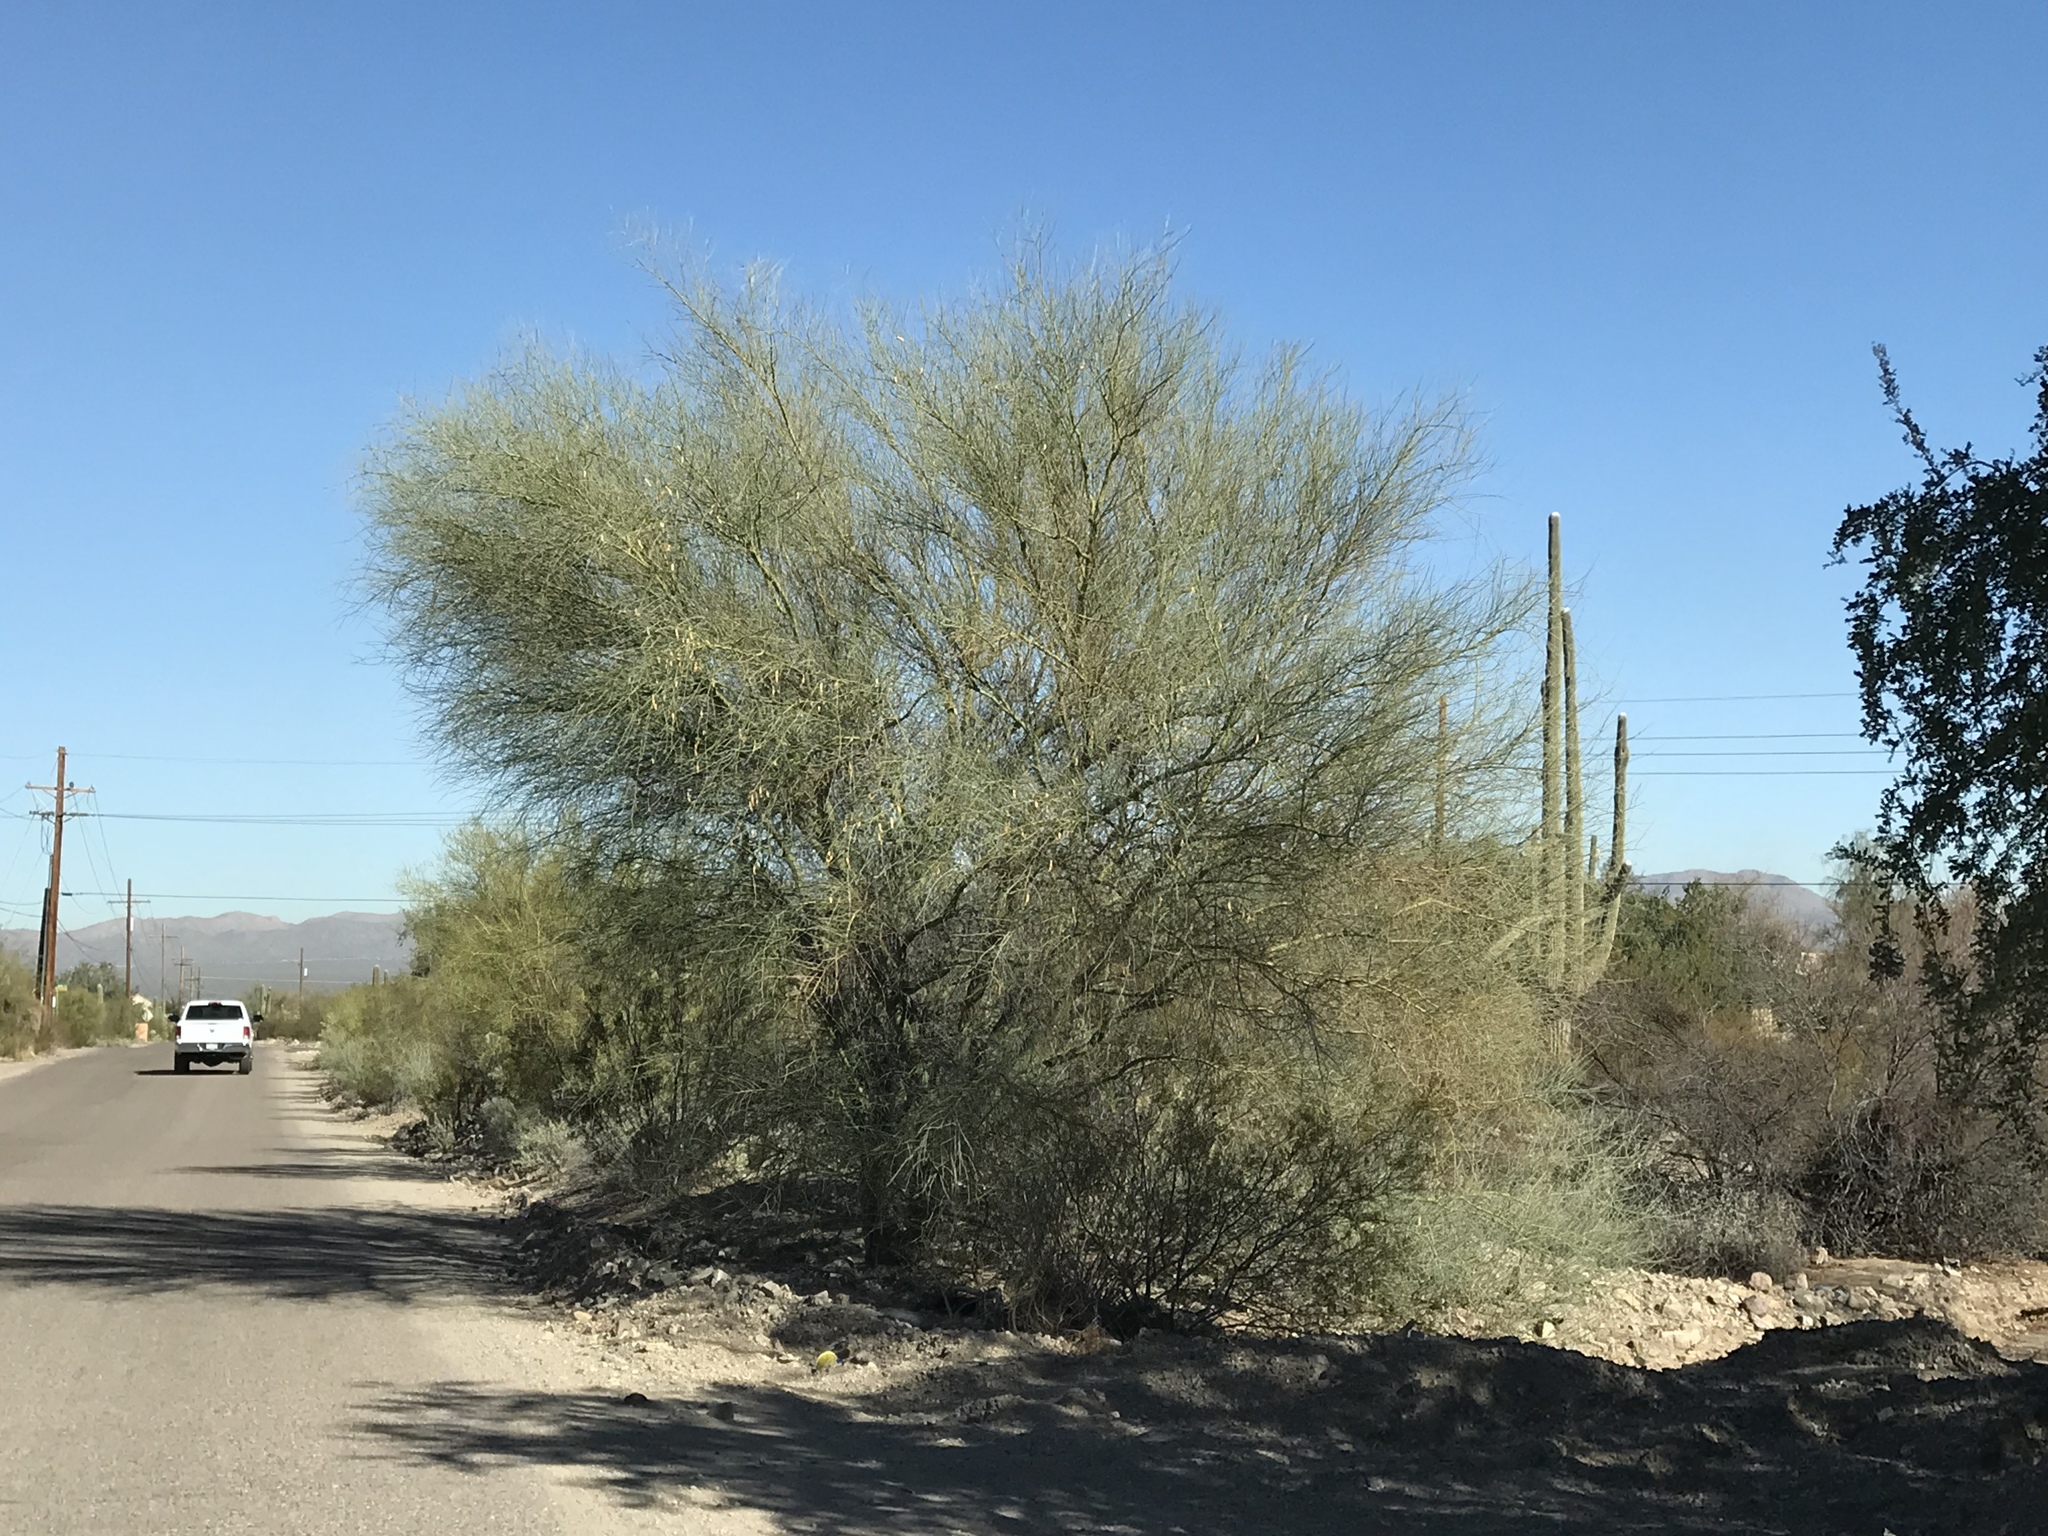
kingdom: Plantae
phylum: Tracheophyta
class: Magnoliopsida
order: Fabales
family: Fabaceae
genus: Parkinsonia
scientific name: Parkinsonia florida
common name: Blue paloverde
